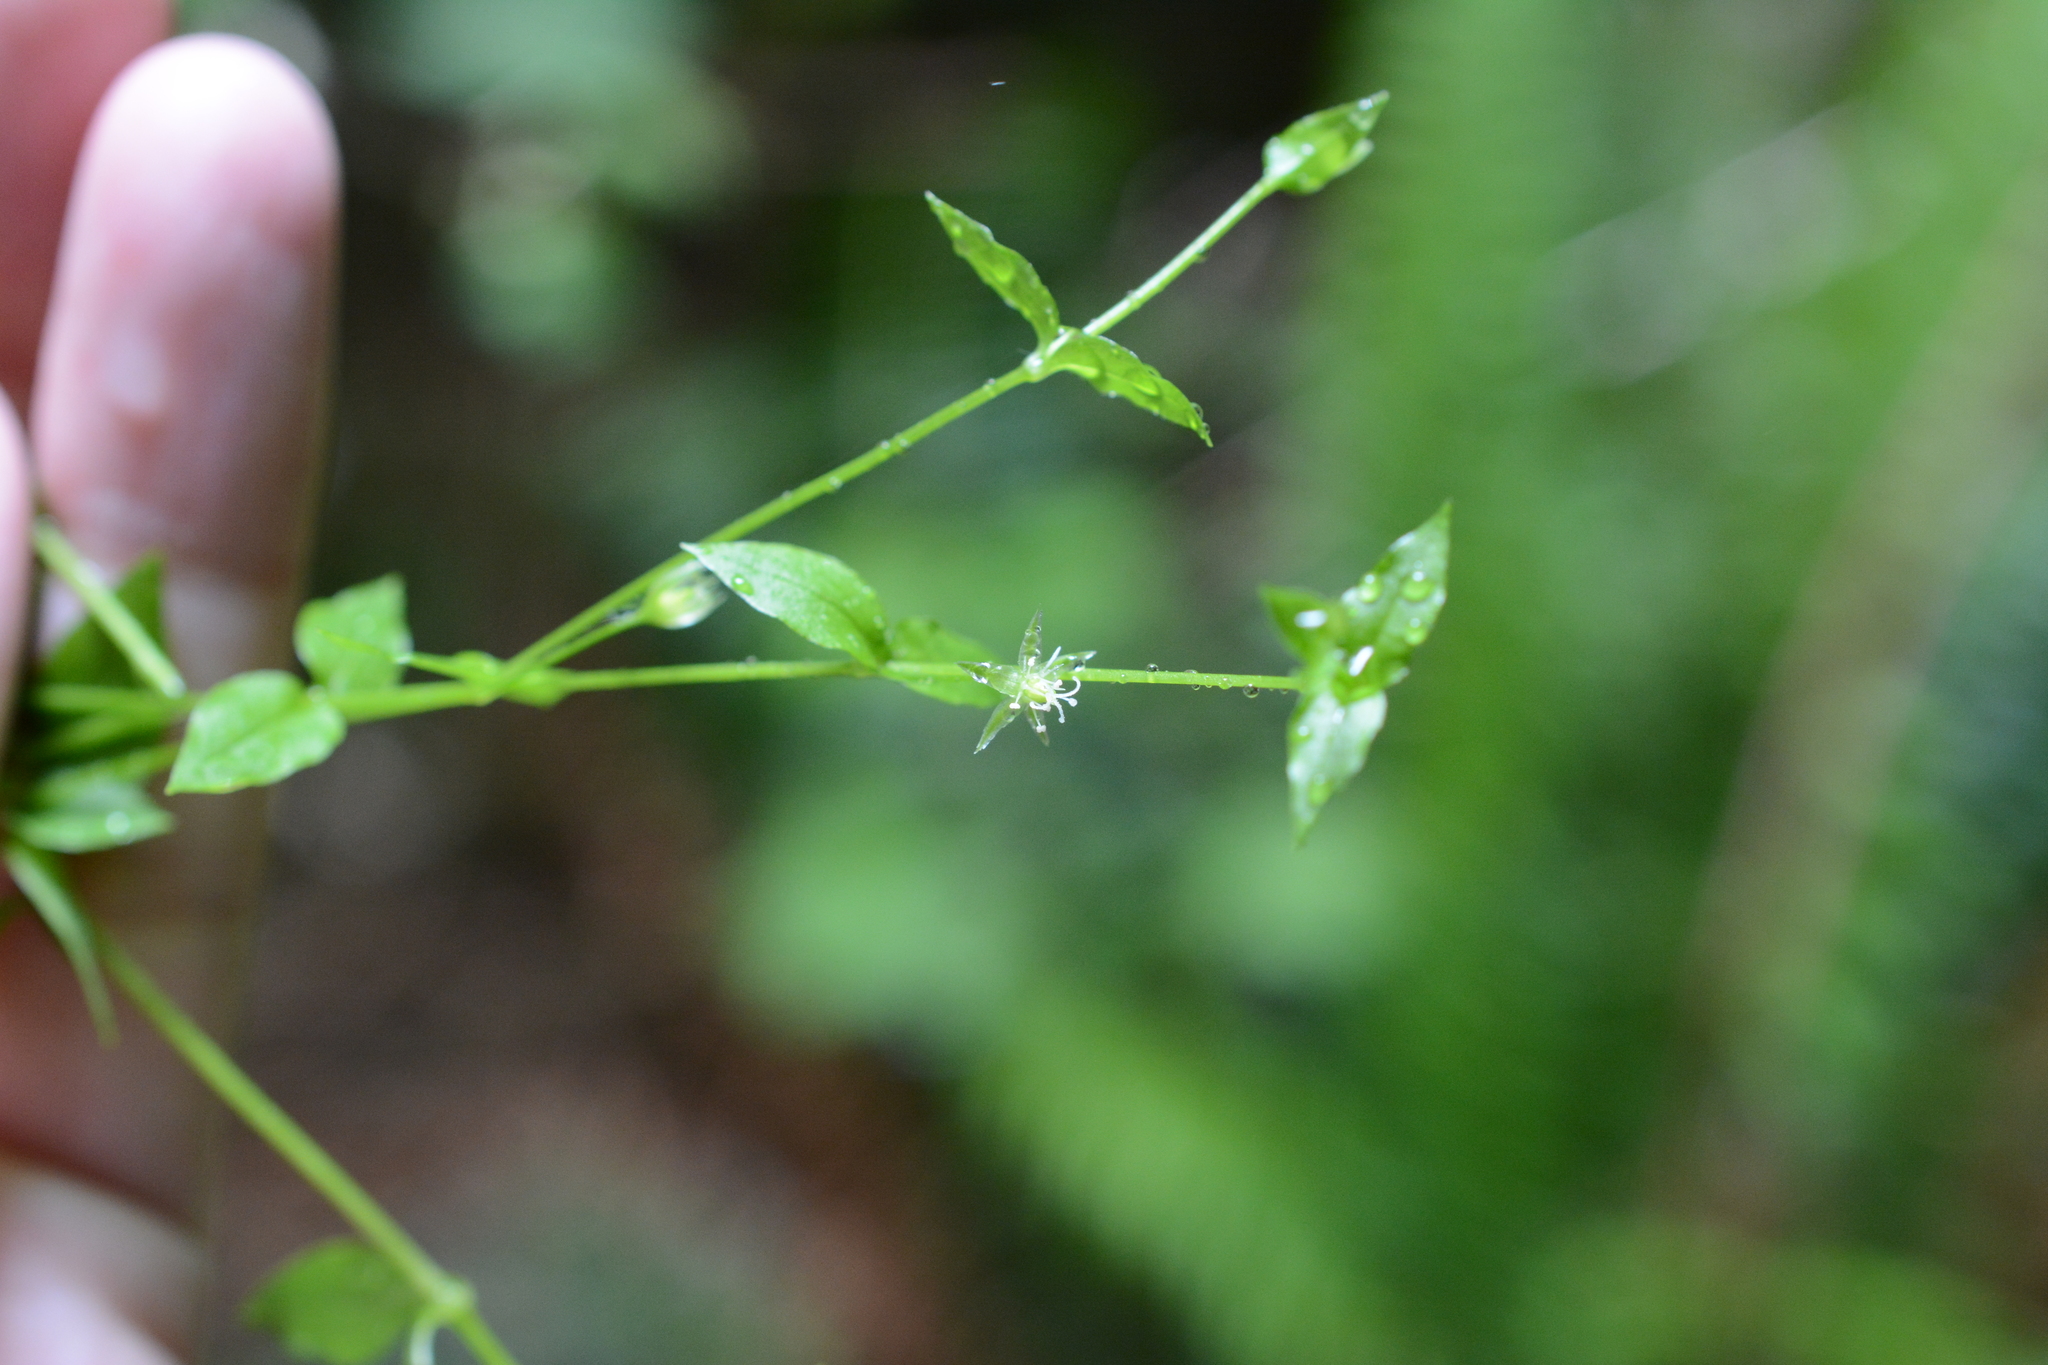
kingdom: Plantae
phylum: Tracheophyta
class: Magnoliopsida
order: Caryophyllales
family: Caryophyllaceae
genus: Stellaria
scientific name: Stellaria crispa
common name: Crimped stitchwort
